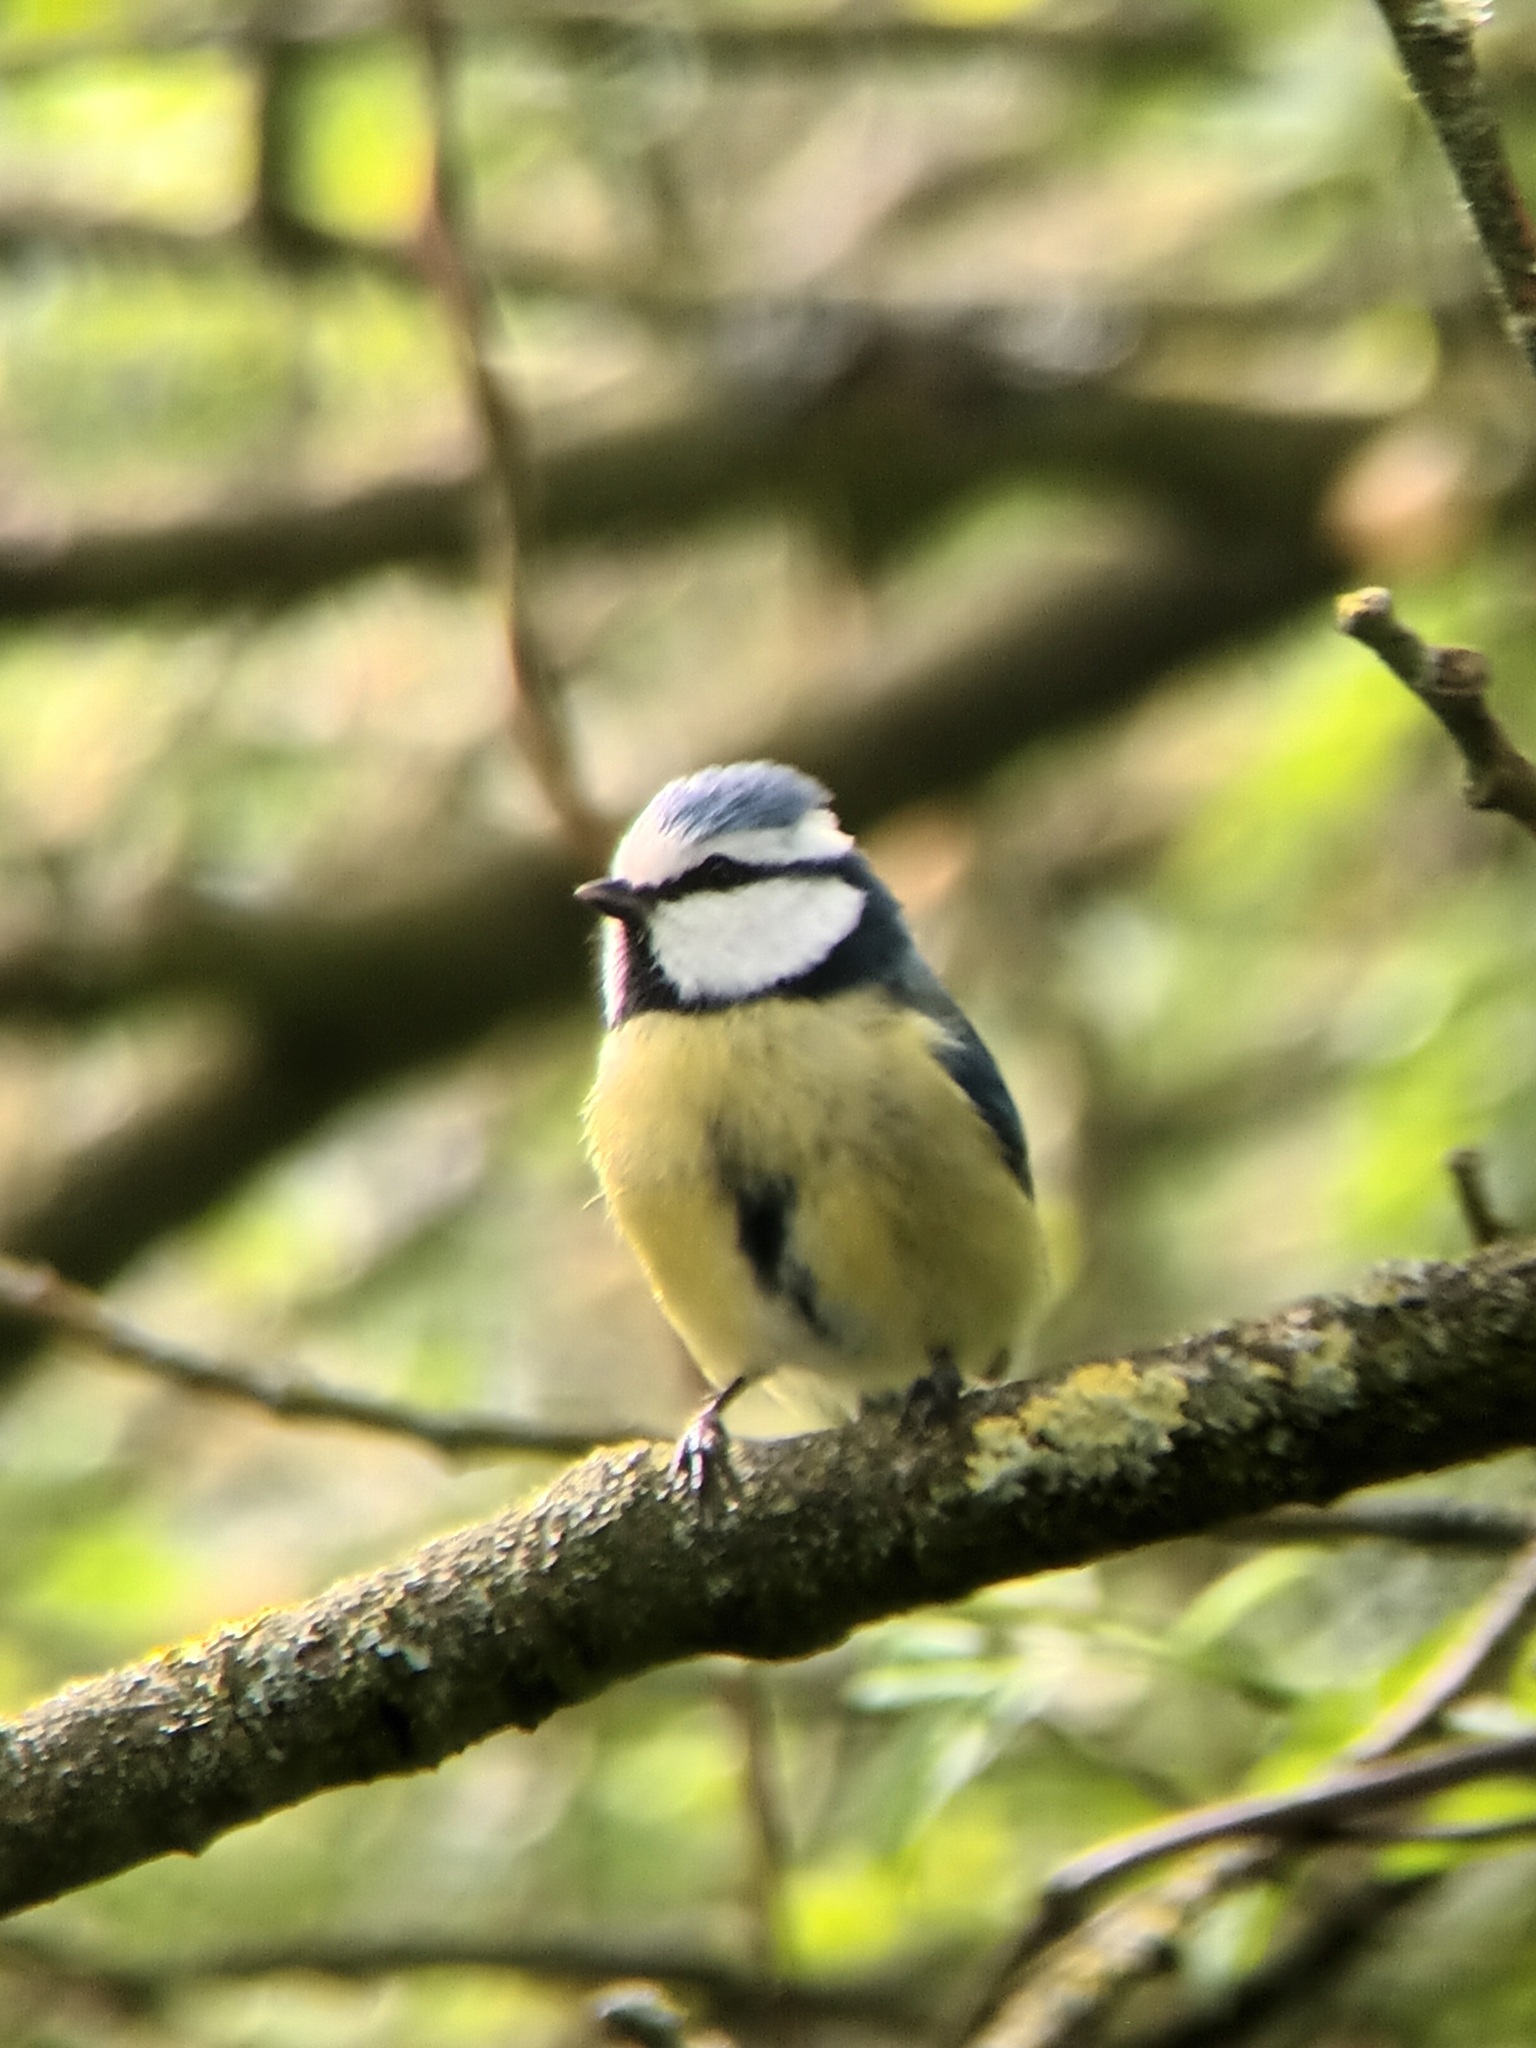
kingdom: Animalia
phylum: Chordata
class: Aves
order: Passeriformes
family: Paridae
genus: Cyanistes
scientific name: Cyanistes caeruleus
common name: Eurasian blue tit
